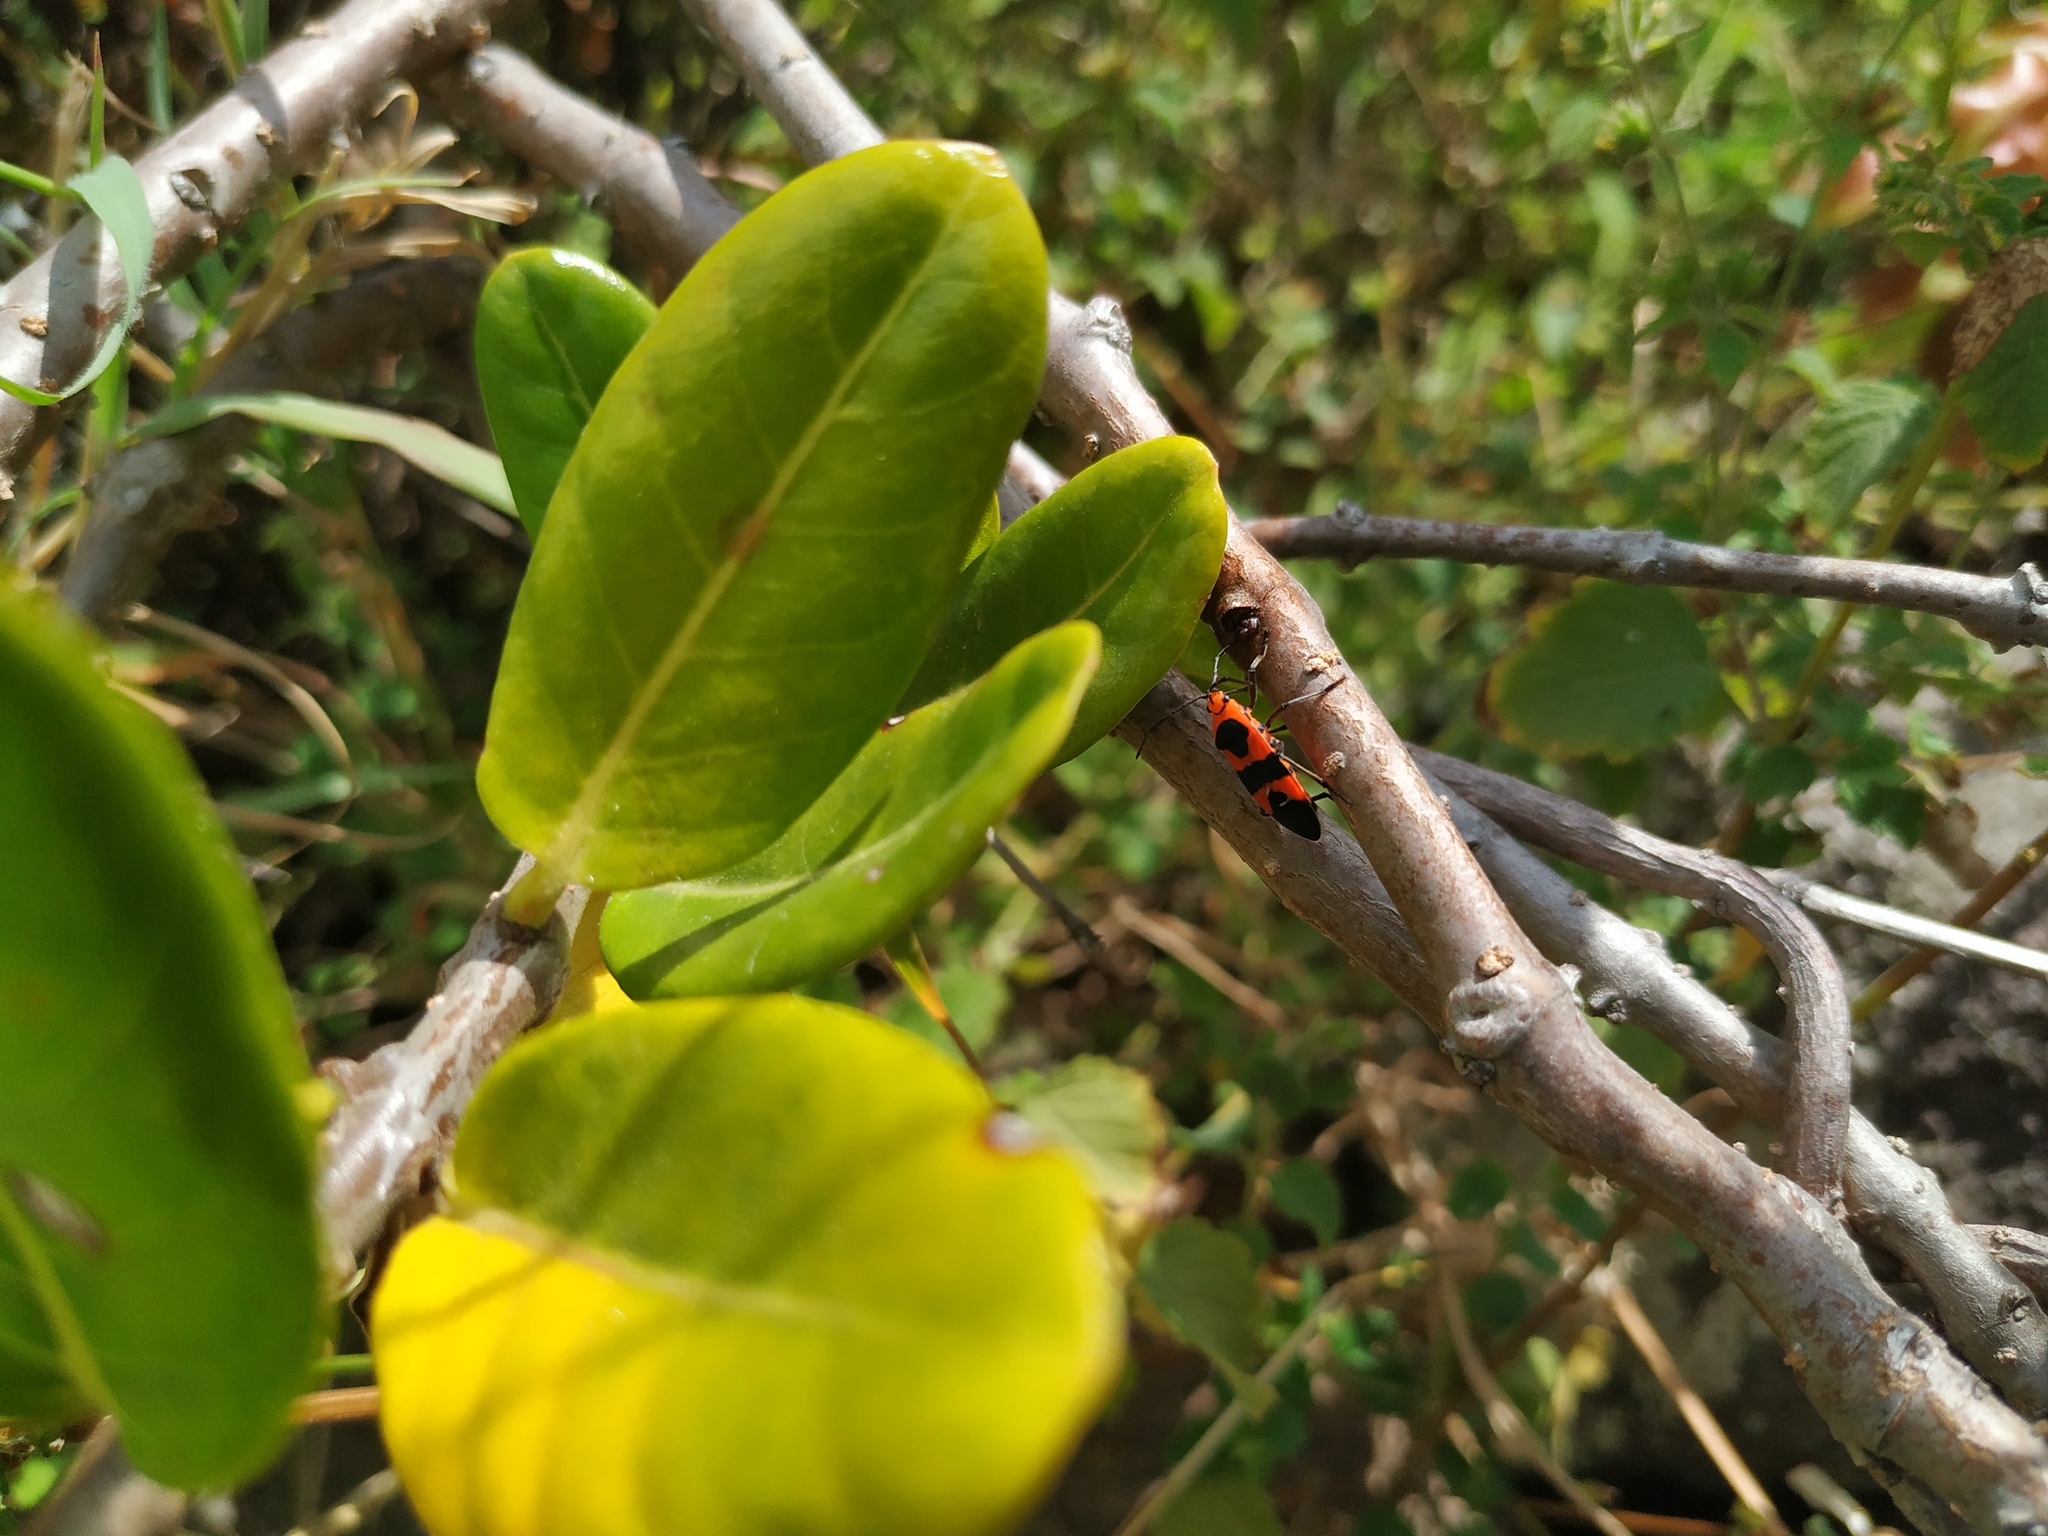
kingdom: Animalia
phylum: Arthropoda
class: Insecta
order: Hemiptera
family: Lygaeidae
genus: Oncopeltus
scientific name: Oncopeltus aulicus
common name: Lygaeid bug
